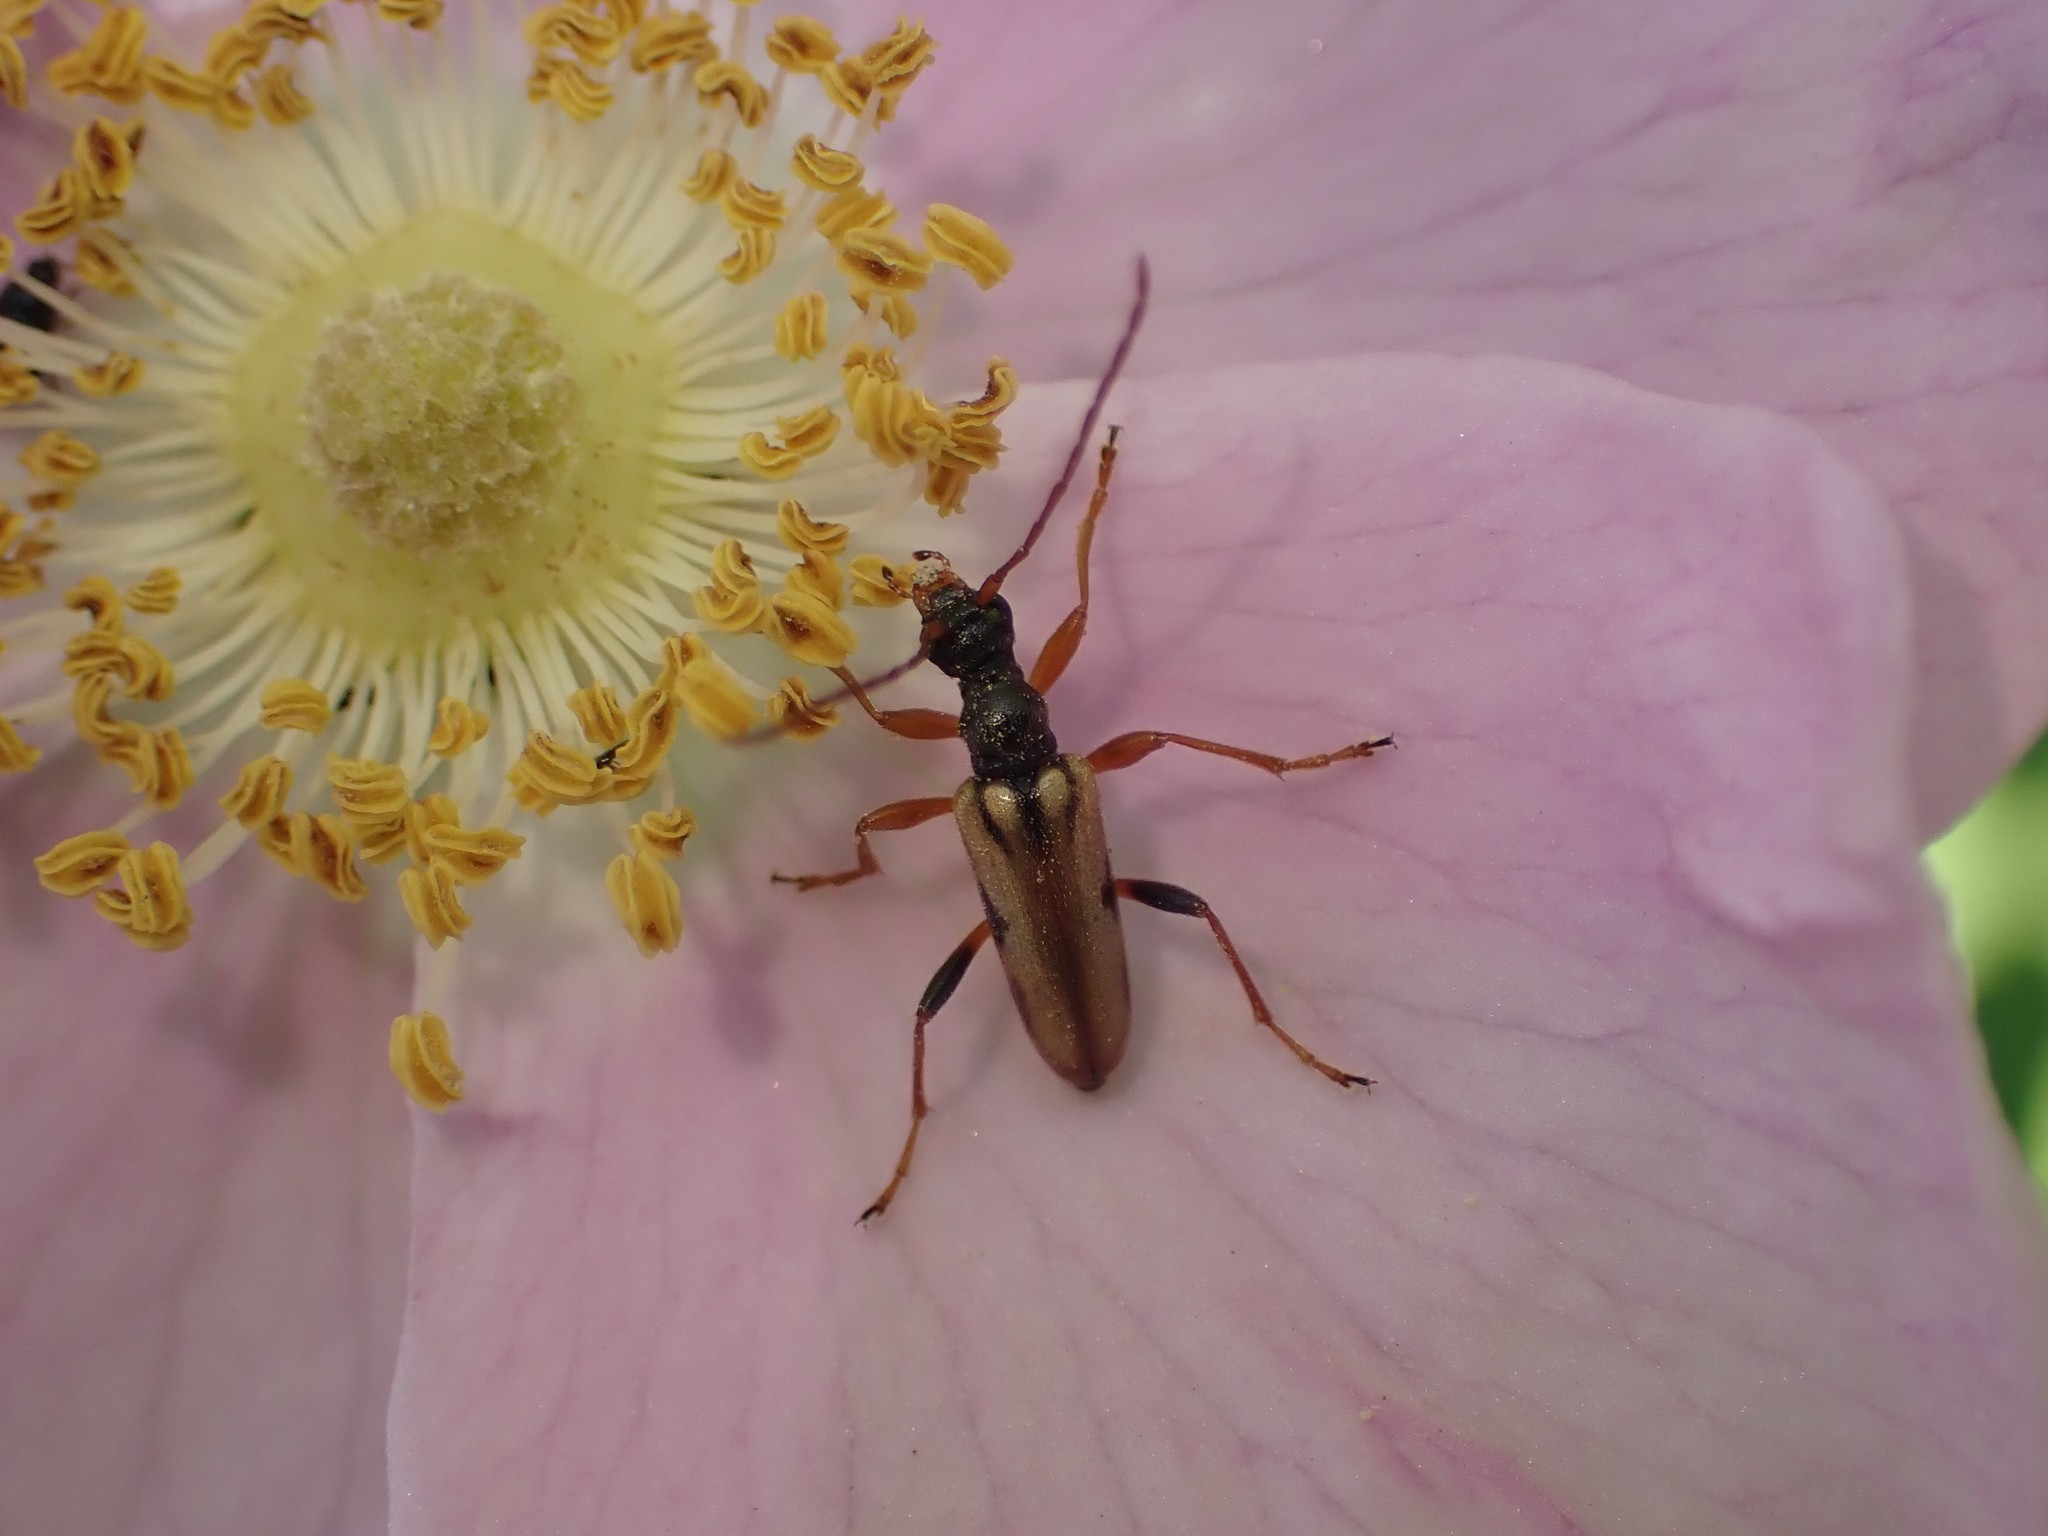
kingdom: Animalia
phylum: Arthropoda
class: Insecta
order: Coleoptera
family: Cerambycidae
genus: Pidonia
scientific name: Pidonia scripta
